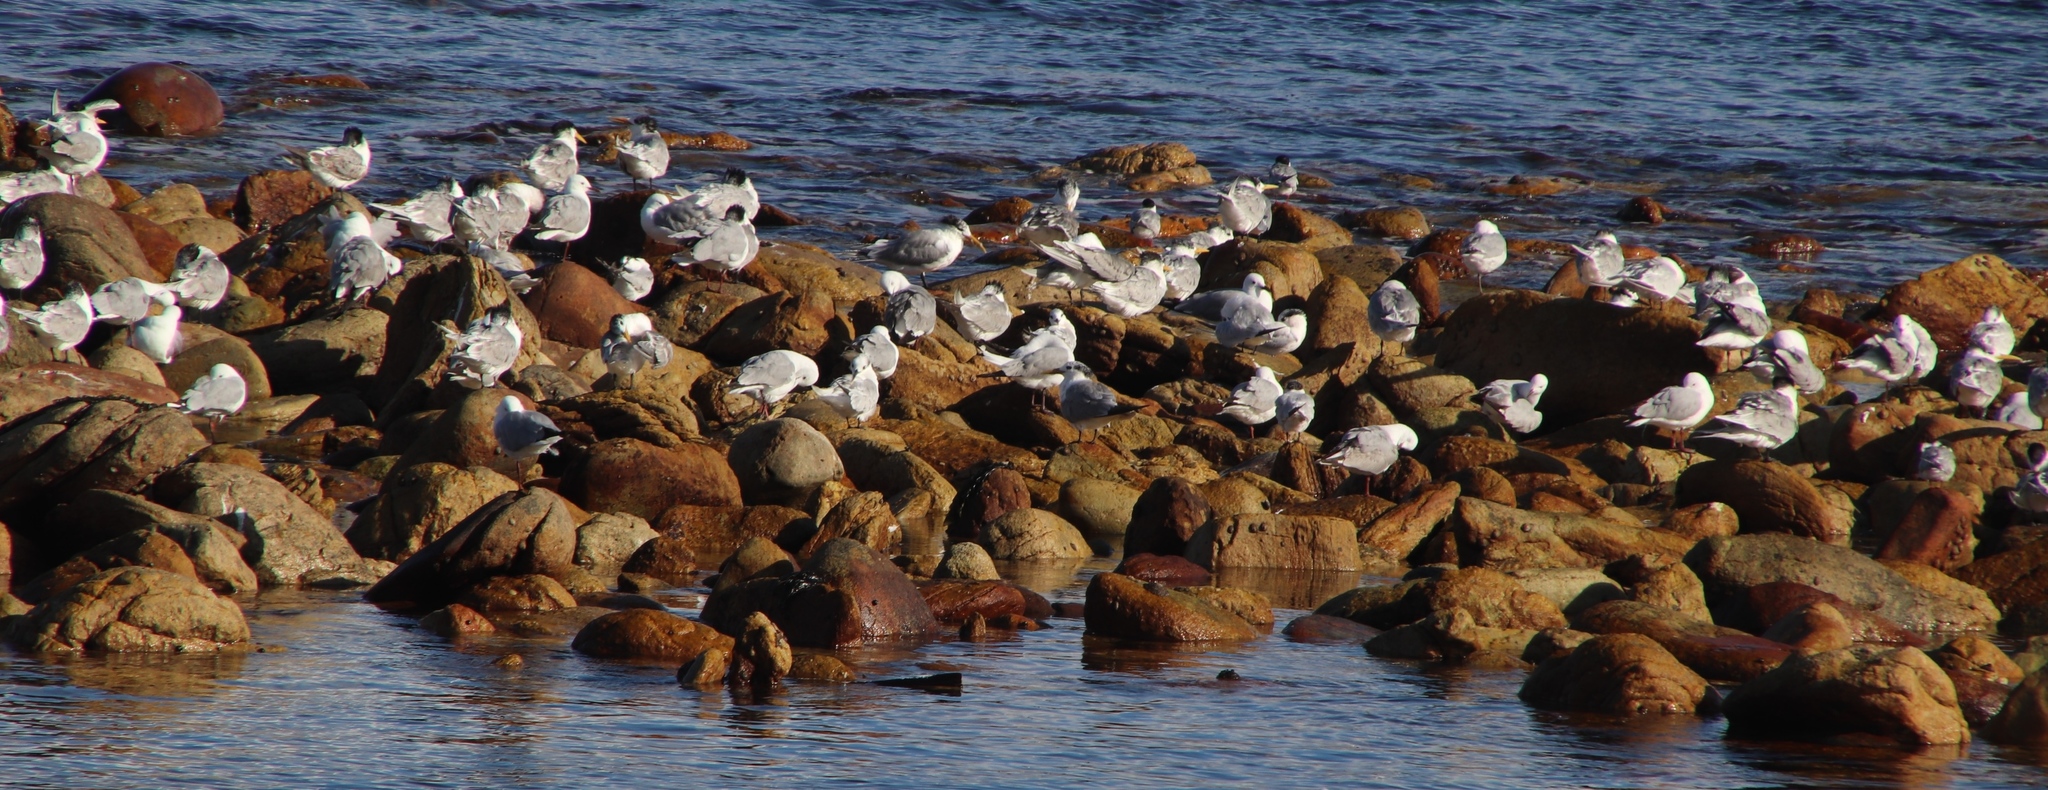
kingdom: Animalia
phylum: Chordata
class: Aves
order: Charadriiformes
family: Laridae
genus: Thalasseus
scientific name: Thalasseus bergii
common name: Greater crested tern
